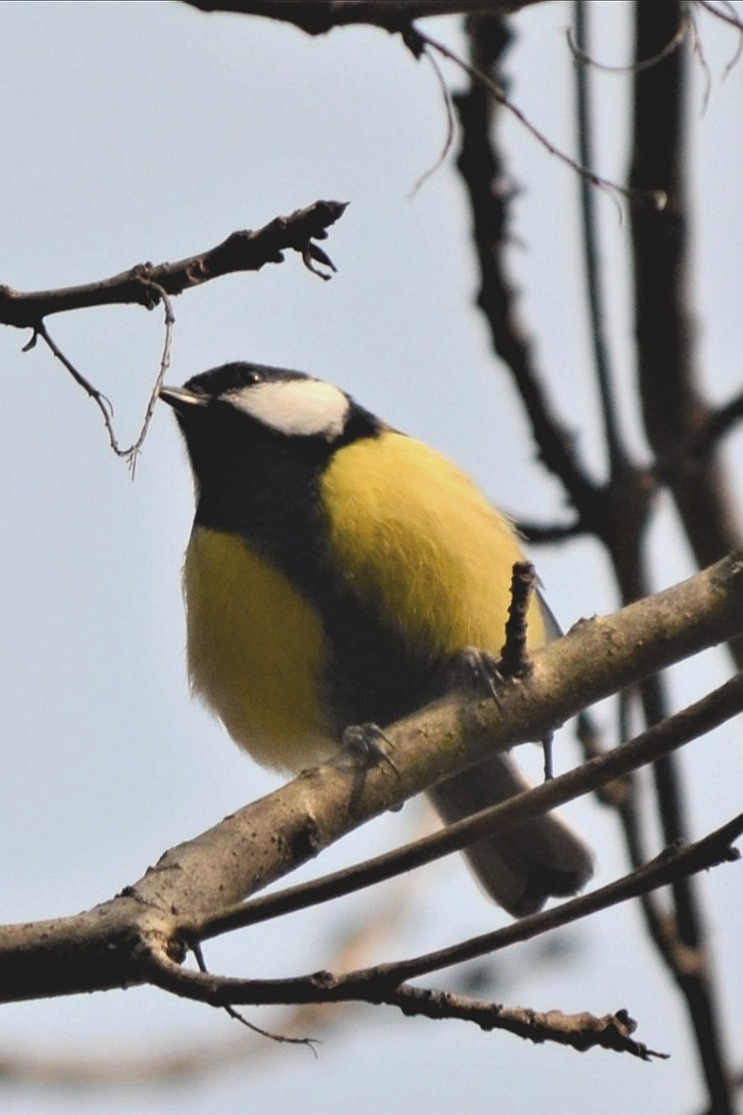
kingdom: Animalia
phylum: Chordata
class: Aves
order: Passeriformes
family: Paridae
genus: Parus
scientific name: Parus major
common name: Great tit
